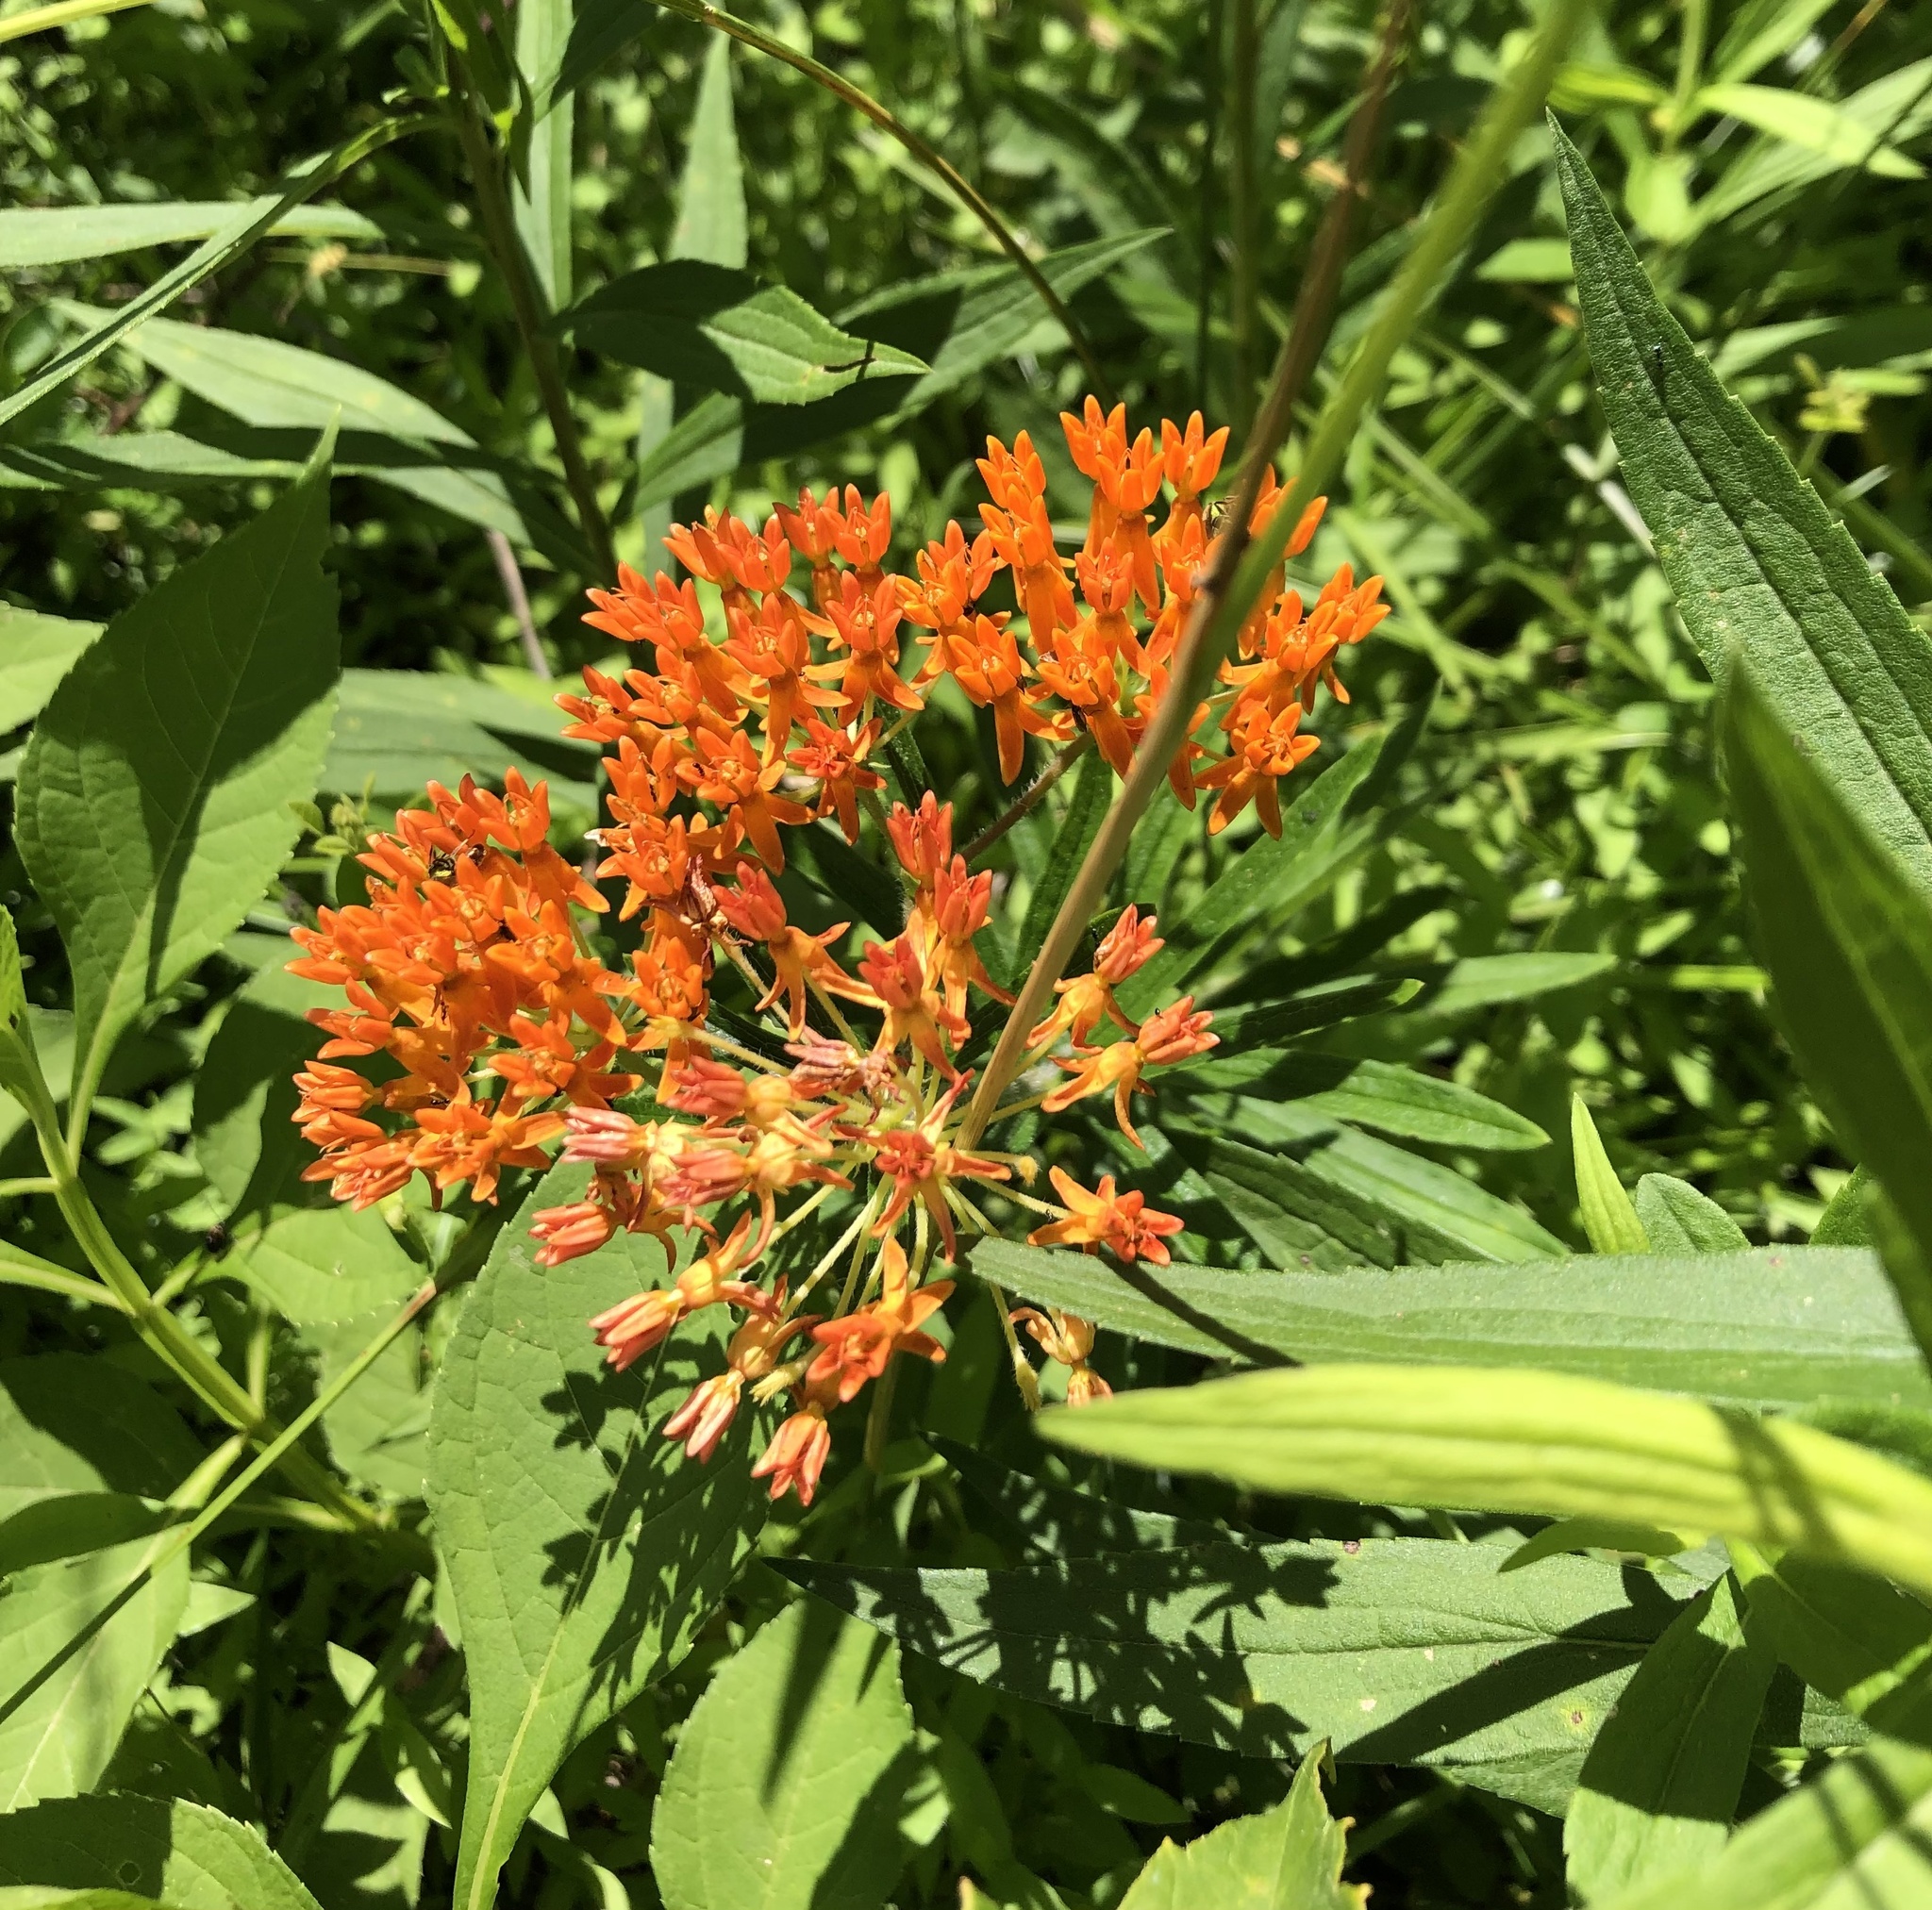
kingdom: Plantae
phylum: Tracheophyta
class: Magnoliopsida
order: Gentianales
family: Apocynaceae
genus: Asclepias
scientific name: Asclepias tuberosa
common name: Butterfly milkweed
